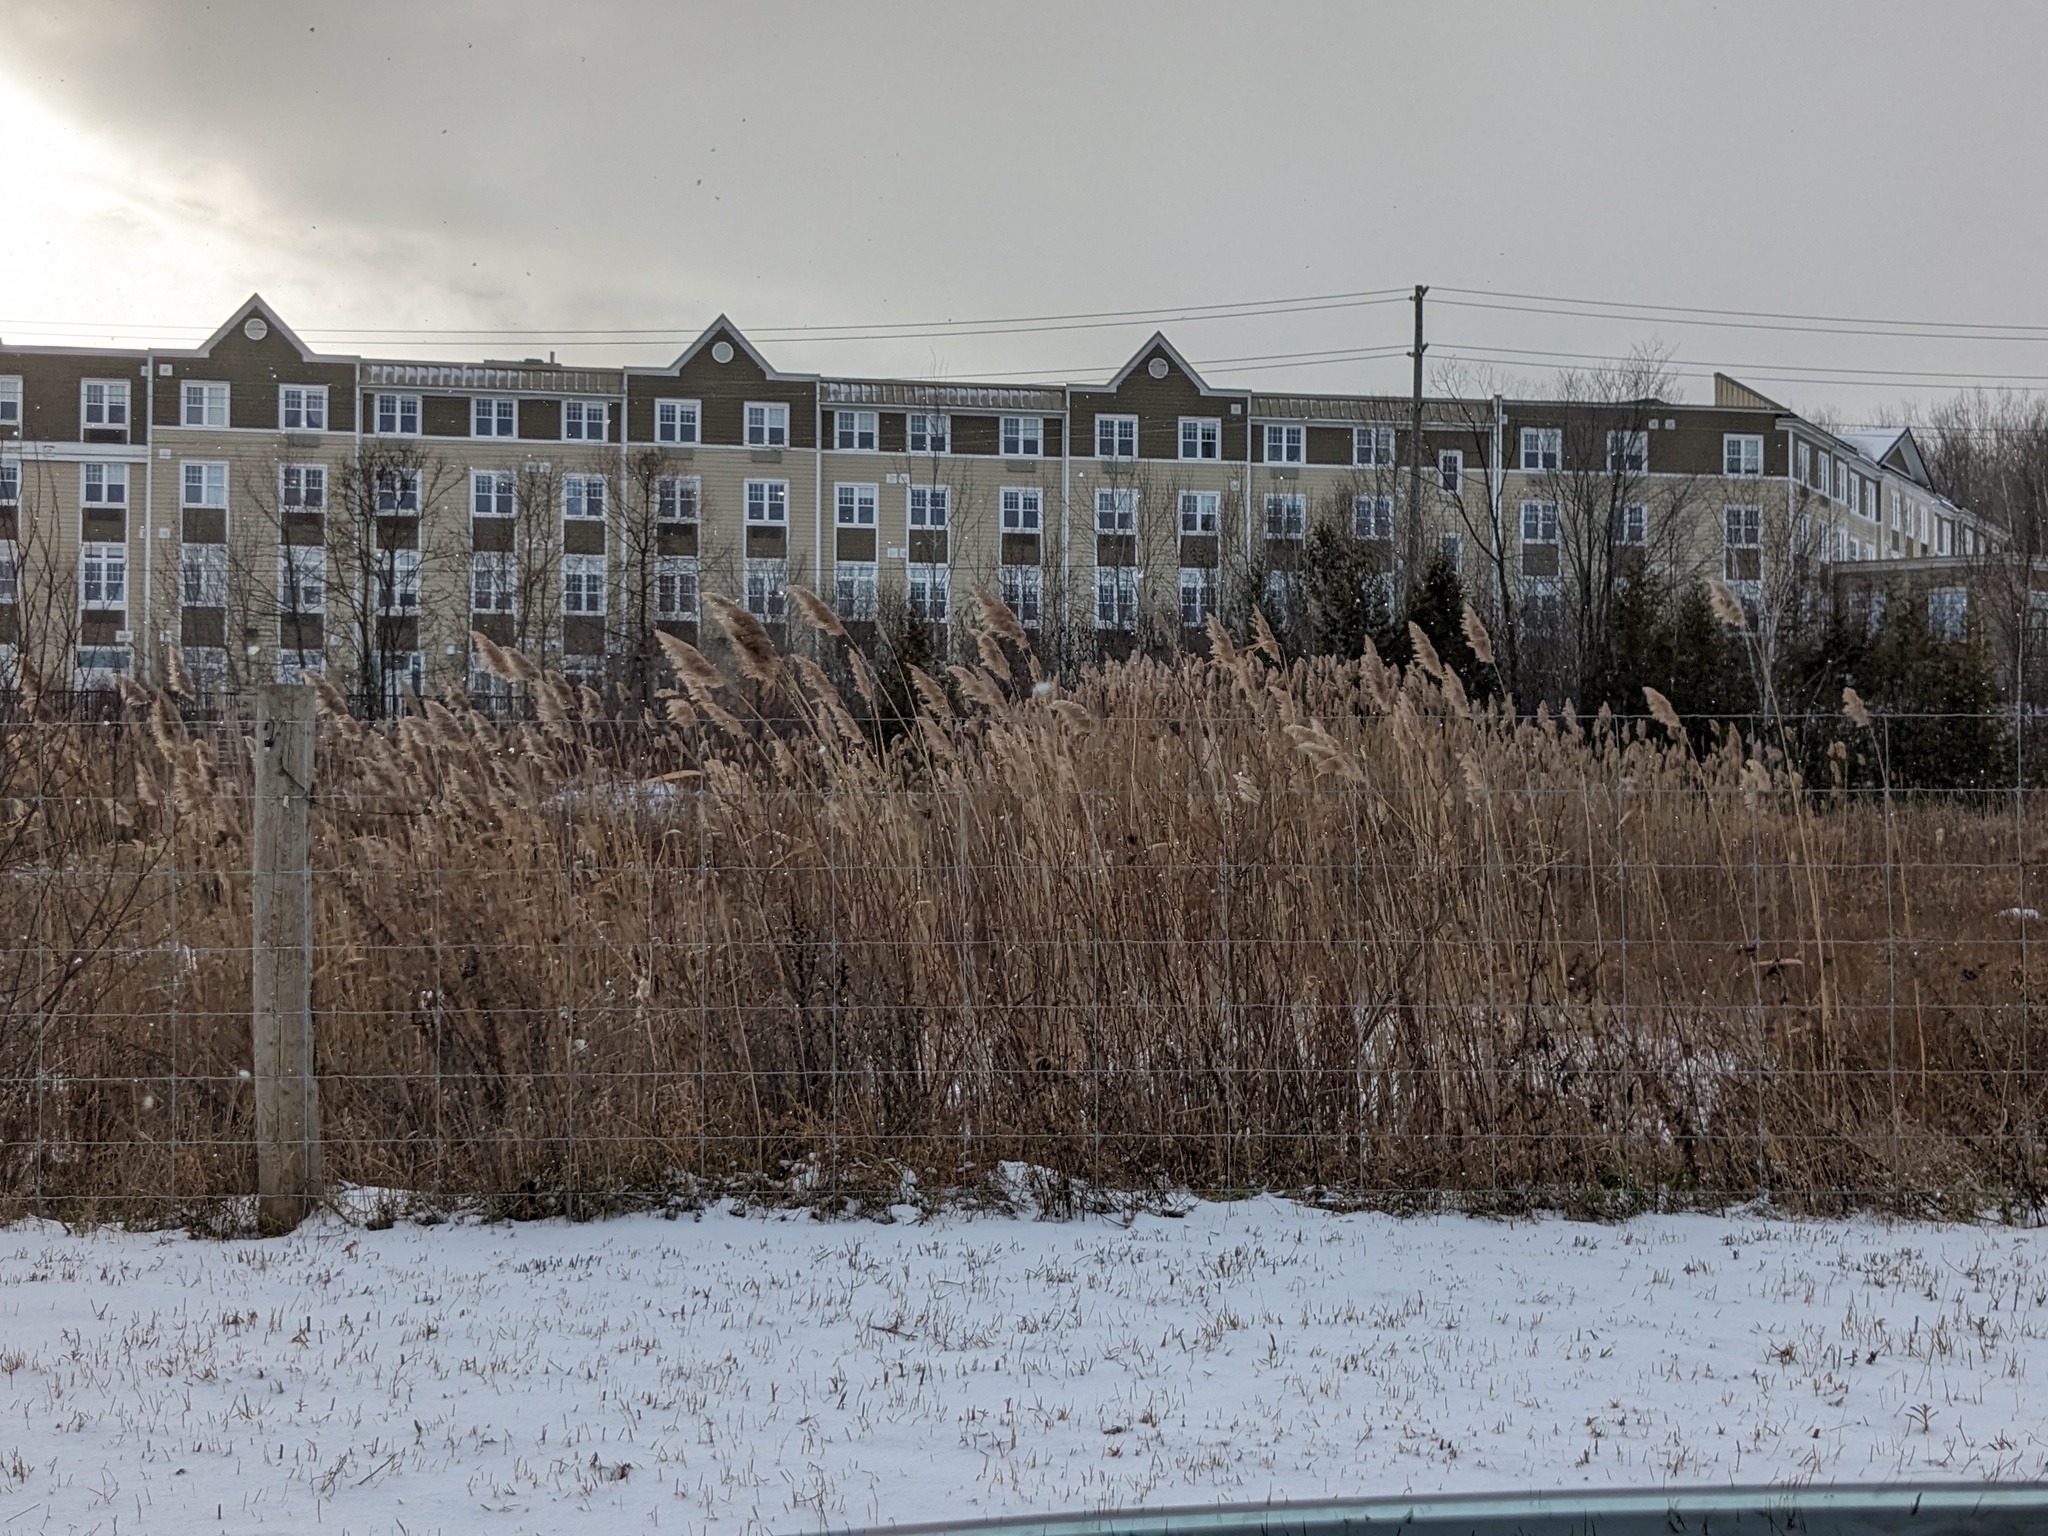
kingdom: Plantae
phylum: Tracheophyta
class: Liliopsida
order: Poales
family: Poaceae
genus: Phragmites
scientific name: Phragmites australis
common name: Common reed
